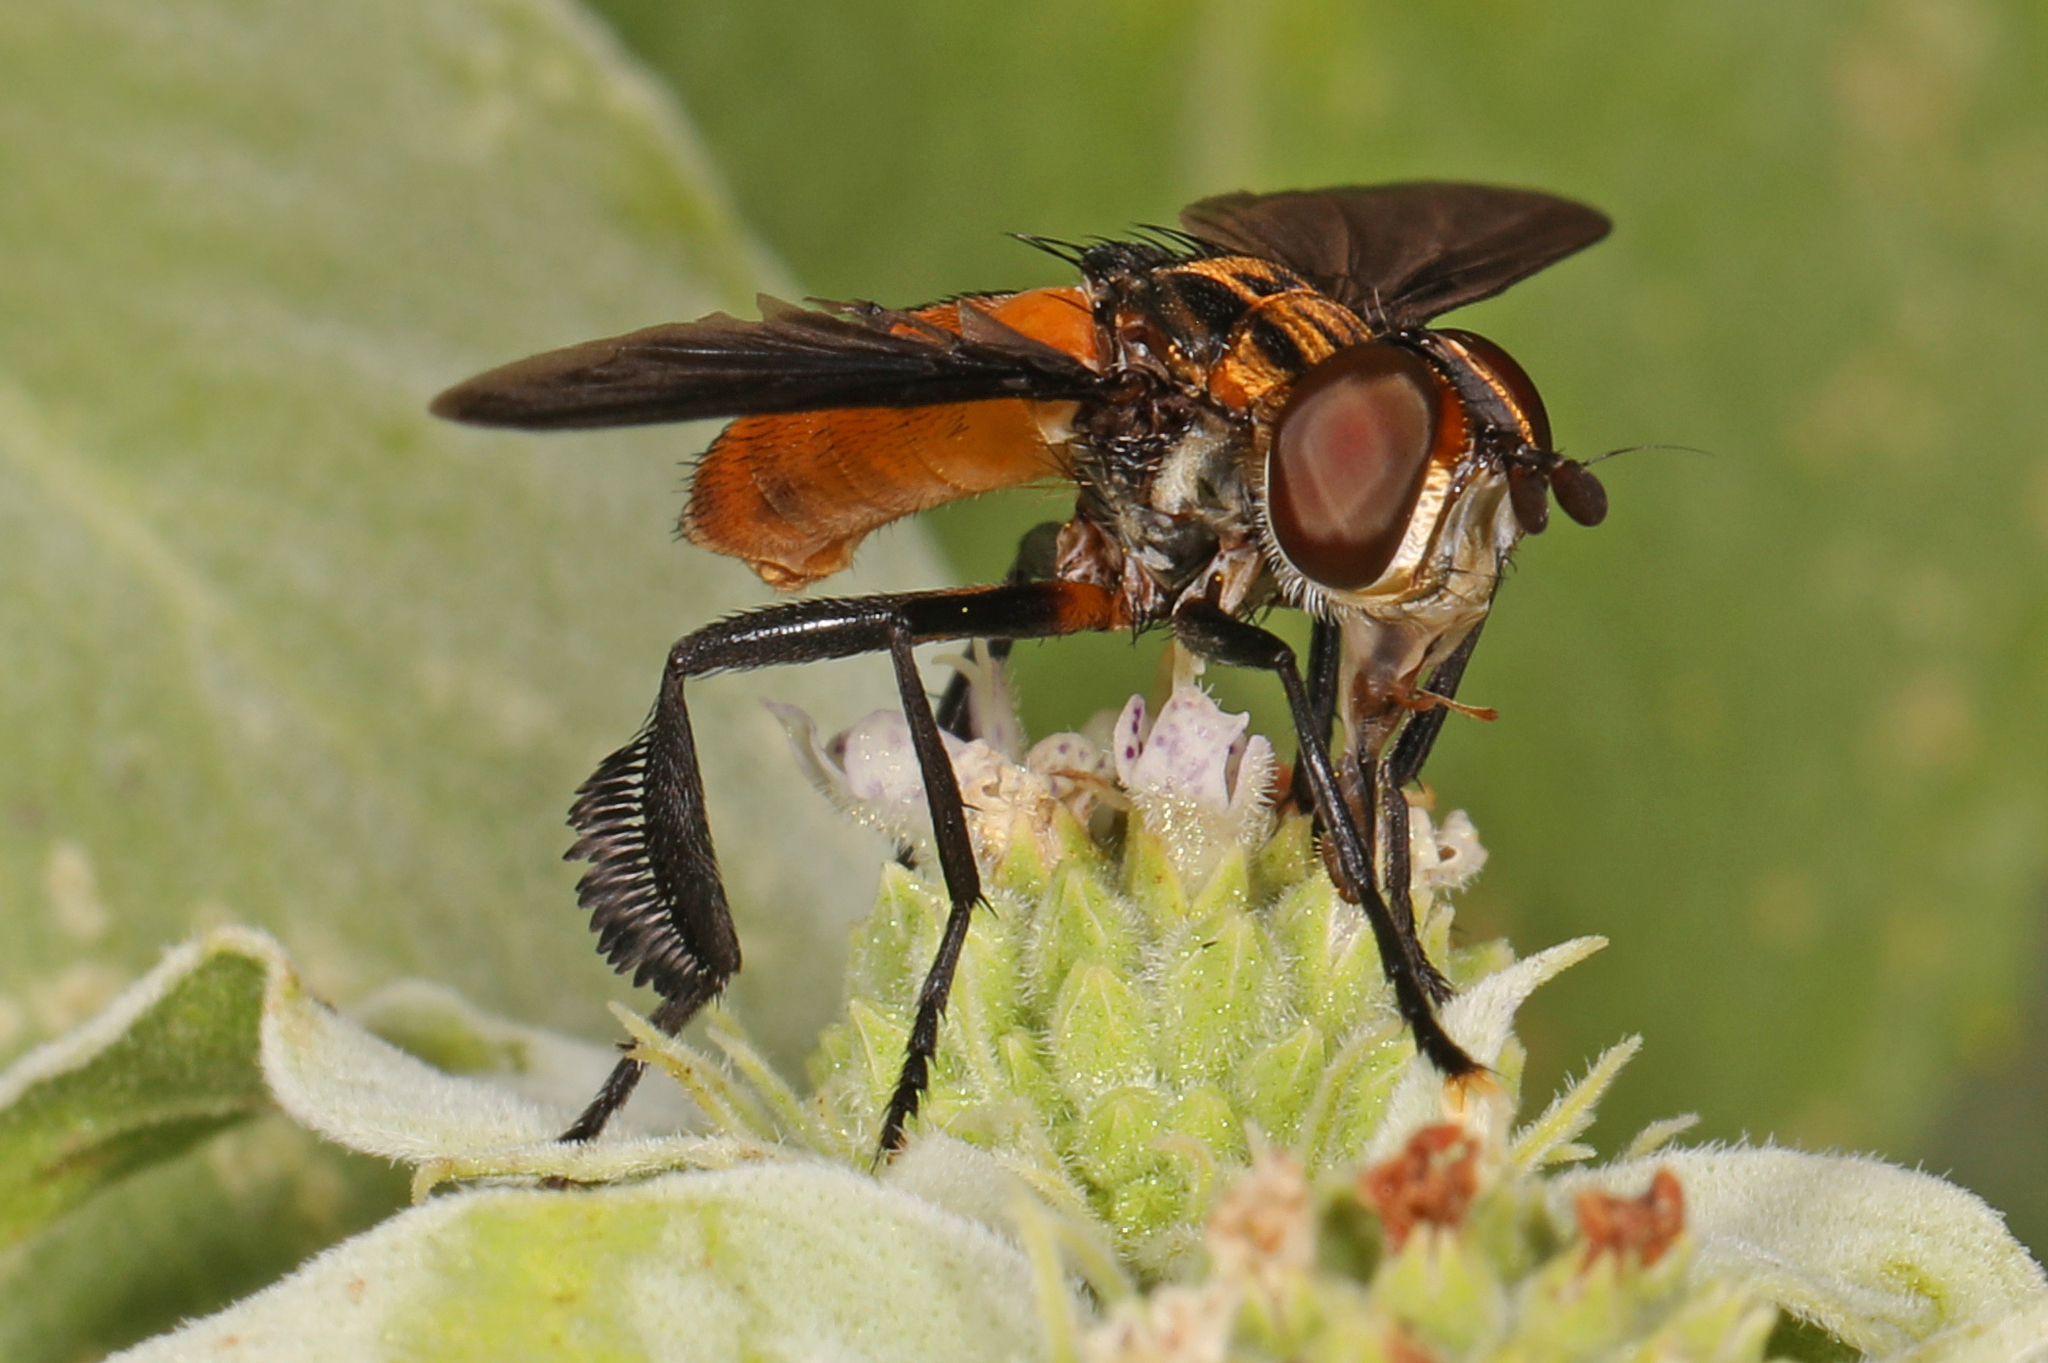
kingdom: Animalia
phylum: Arthropoda
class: Insecta
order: Diptera
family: Tachinidae
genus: Trichopoda
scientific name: Trichopoda pennipes
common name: Tachinid fly
